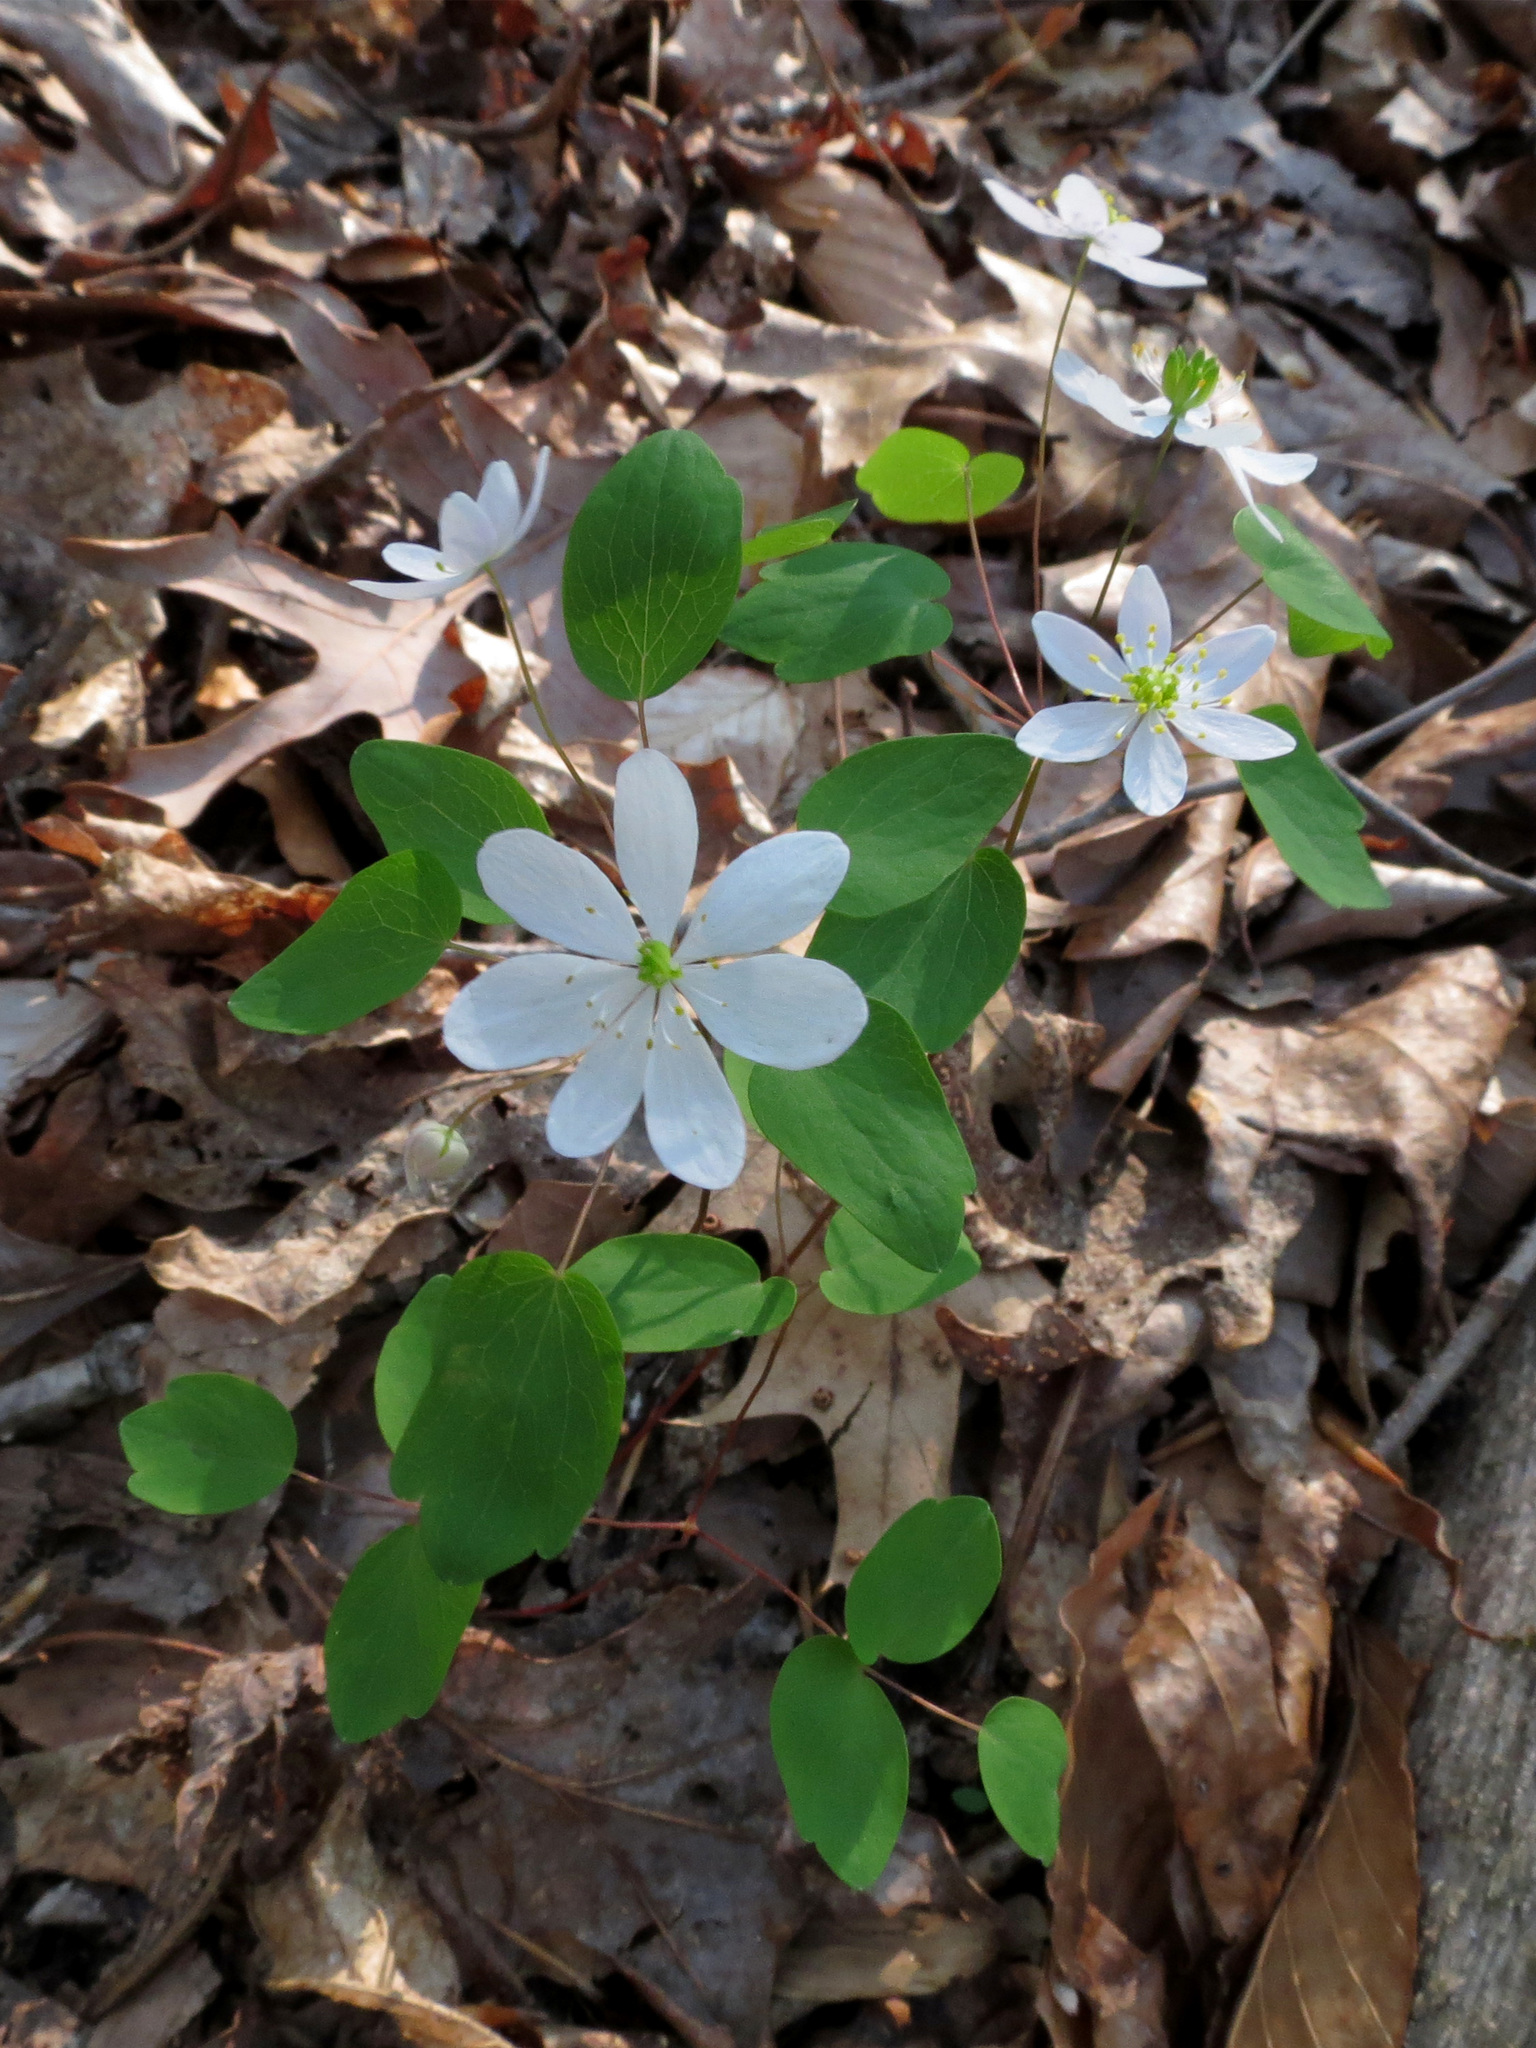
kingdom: Plantae
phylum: Tracheophyta
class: Magnoliopsida
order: Ranunculales
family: Ranunculaceae
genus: Thalictrum
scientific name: Thalictrum thalictroides
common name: Rue-anemone
